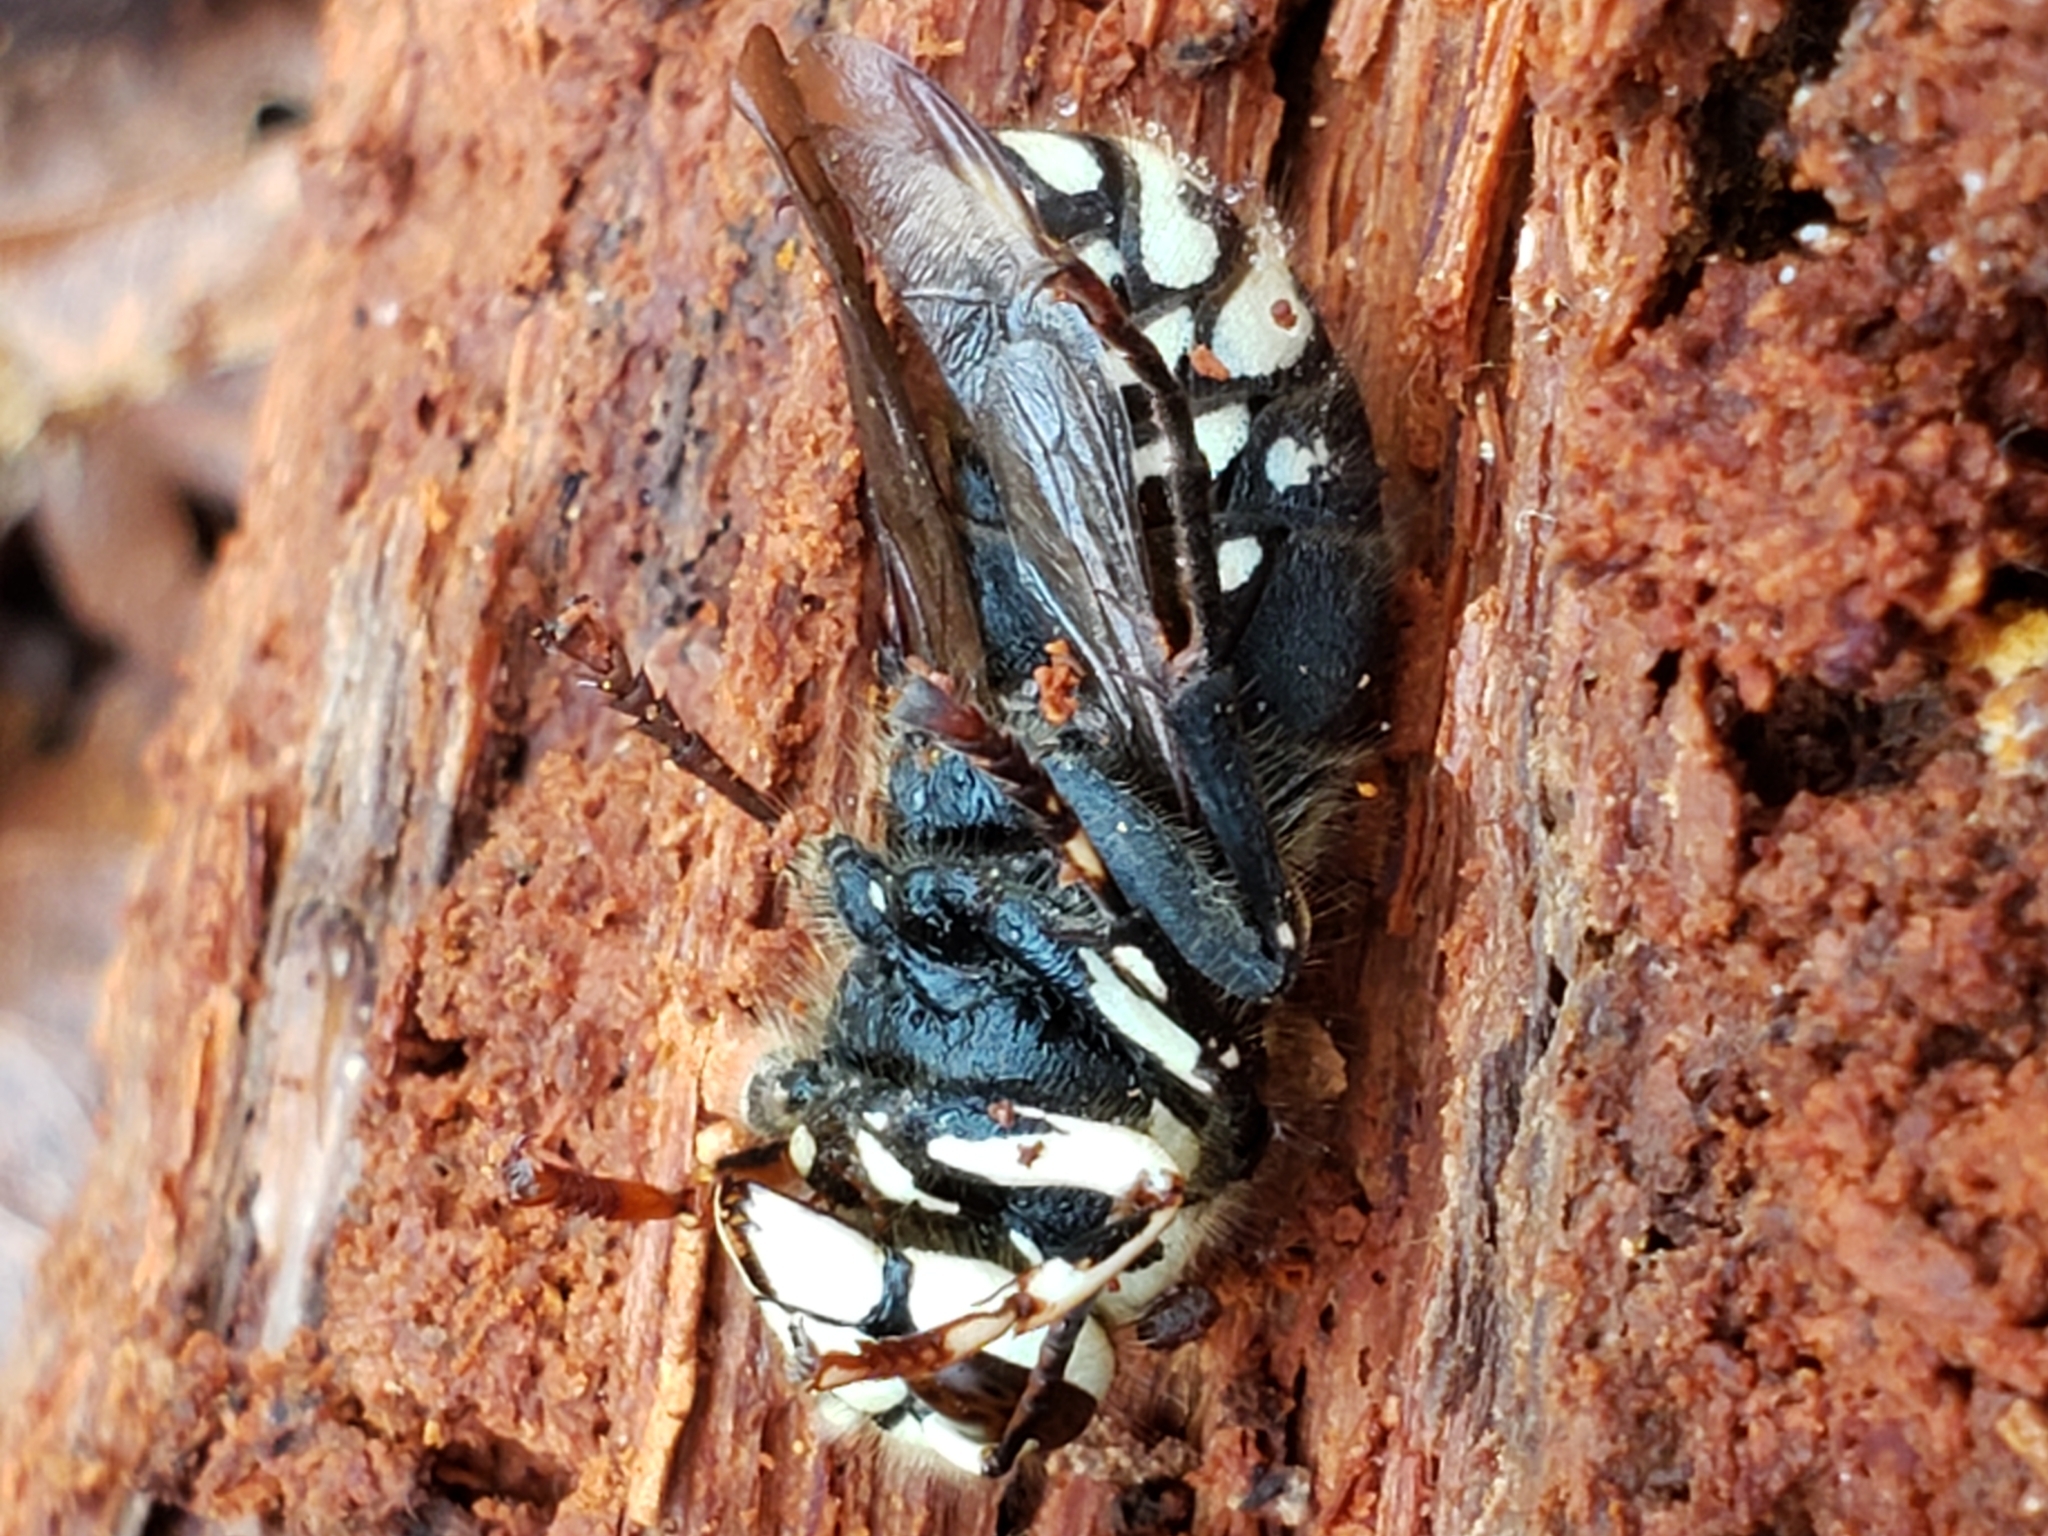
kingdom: Animalia
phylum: Arthropoda
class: Insecta
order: Hymenoptera
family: Vespidae
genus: Dolichovespula
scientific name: Dolichovespula maculata
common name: Bald-faced hornet
